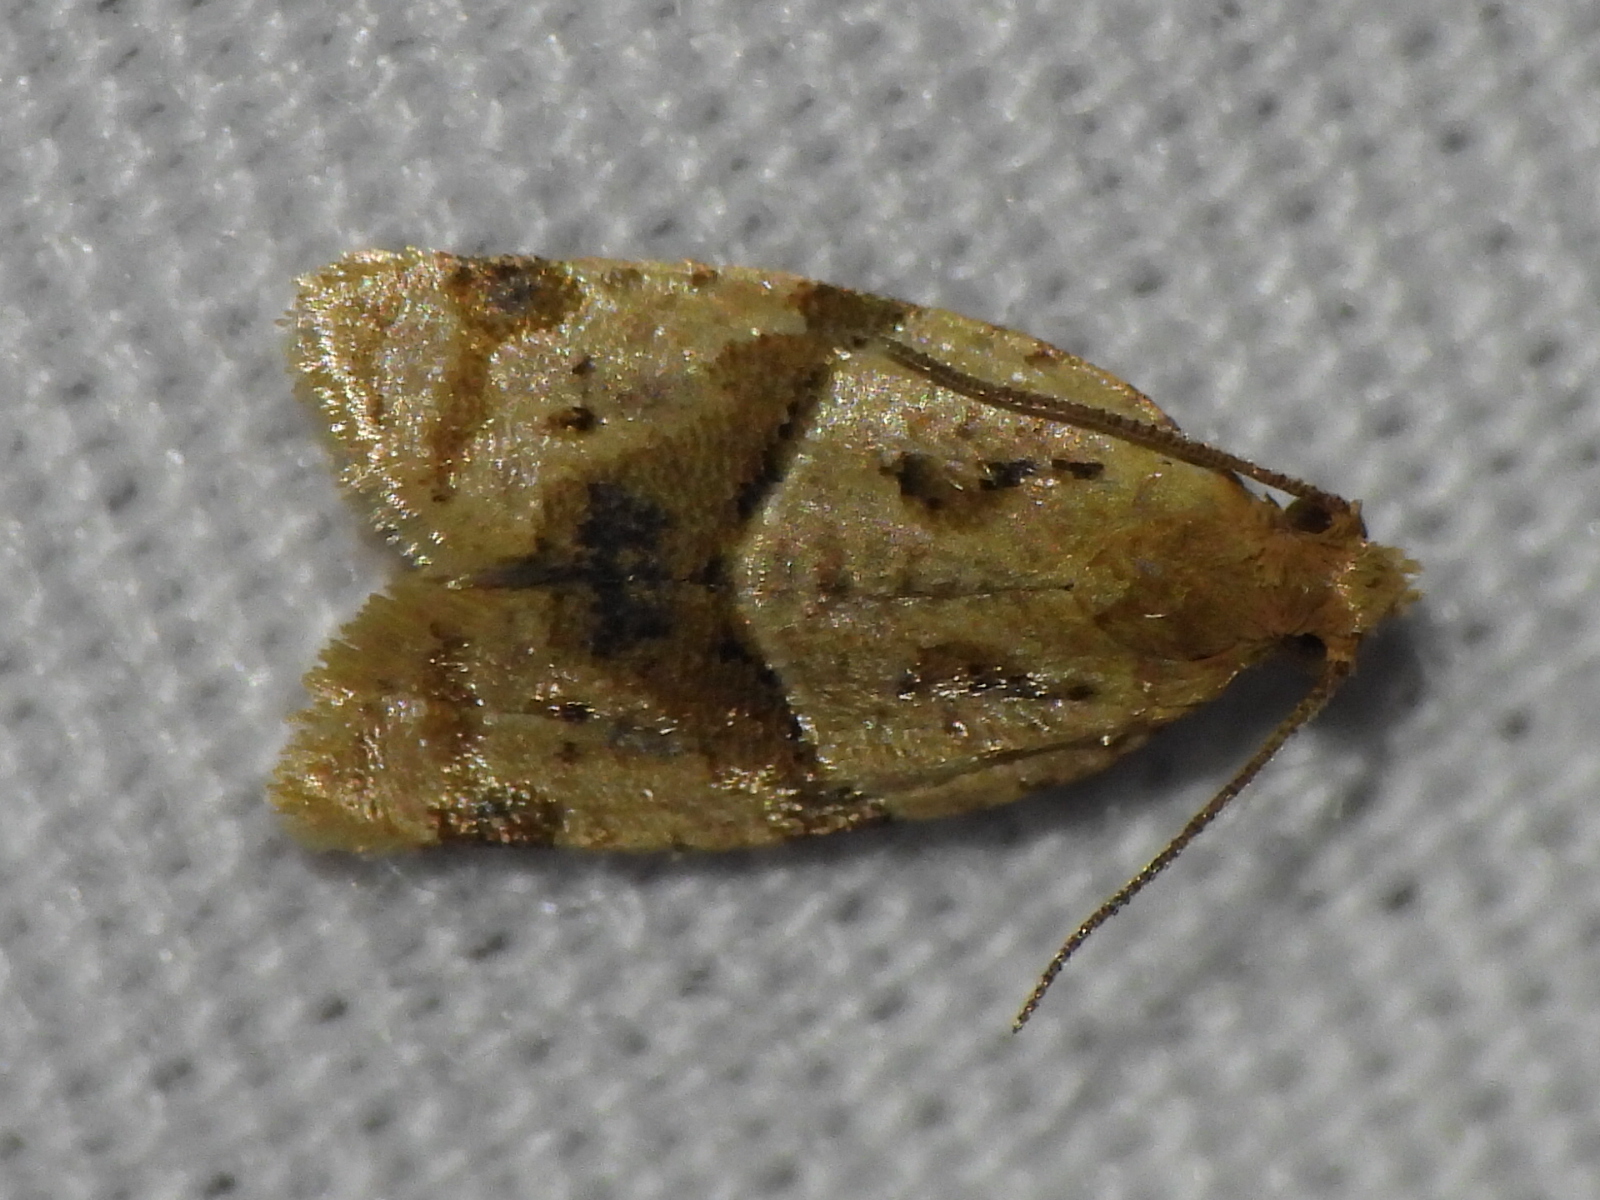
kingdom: Animalia
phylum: Arthropoda
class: Insecta
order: Lepidoptera
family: Tortricidae
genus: Clepsis
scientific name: Clepsis peritana
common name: Garden tortrix
